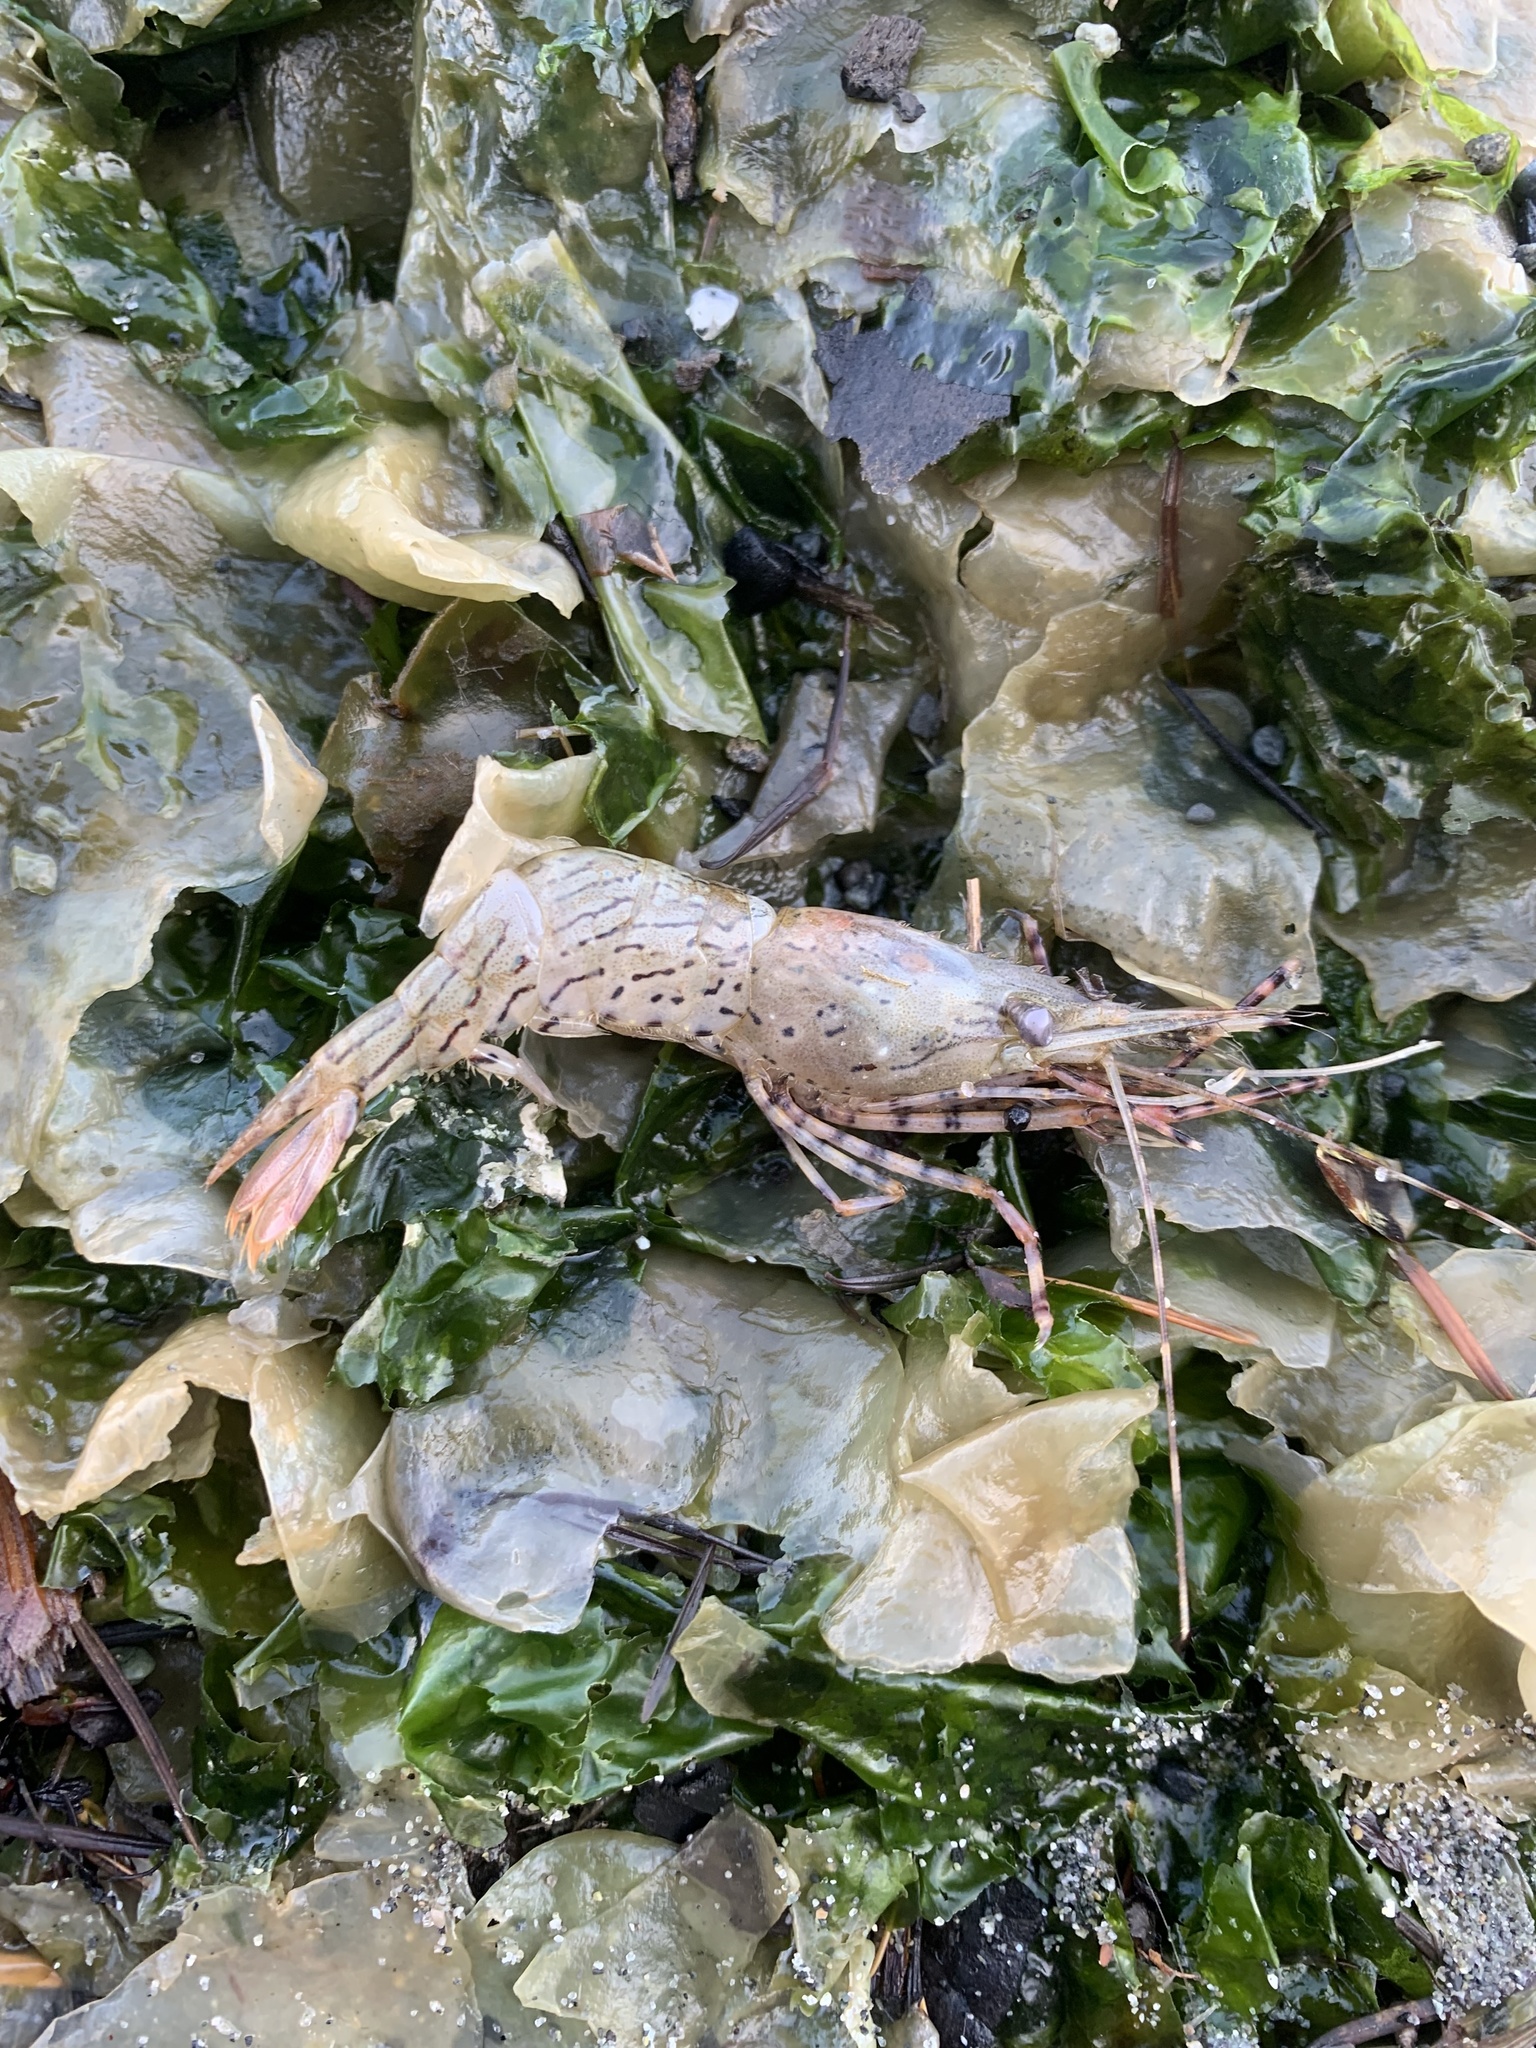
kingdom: Animalia
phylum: Arthropoda
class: Malacostraca
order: Decapoda
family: Pandalidae
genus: Pandalus
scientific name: Pandalus danae
